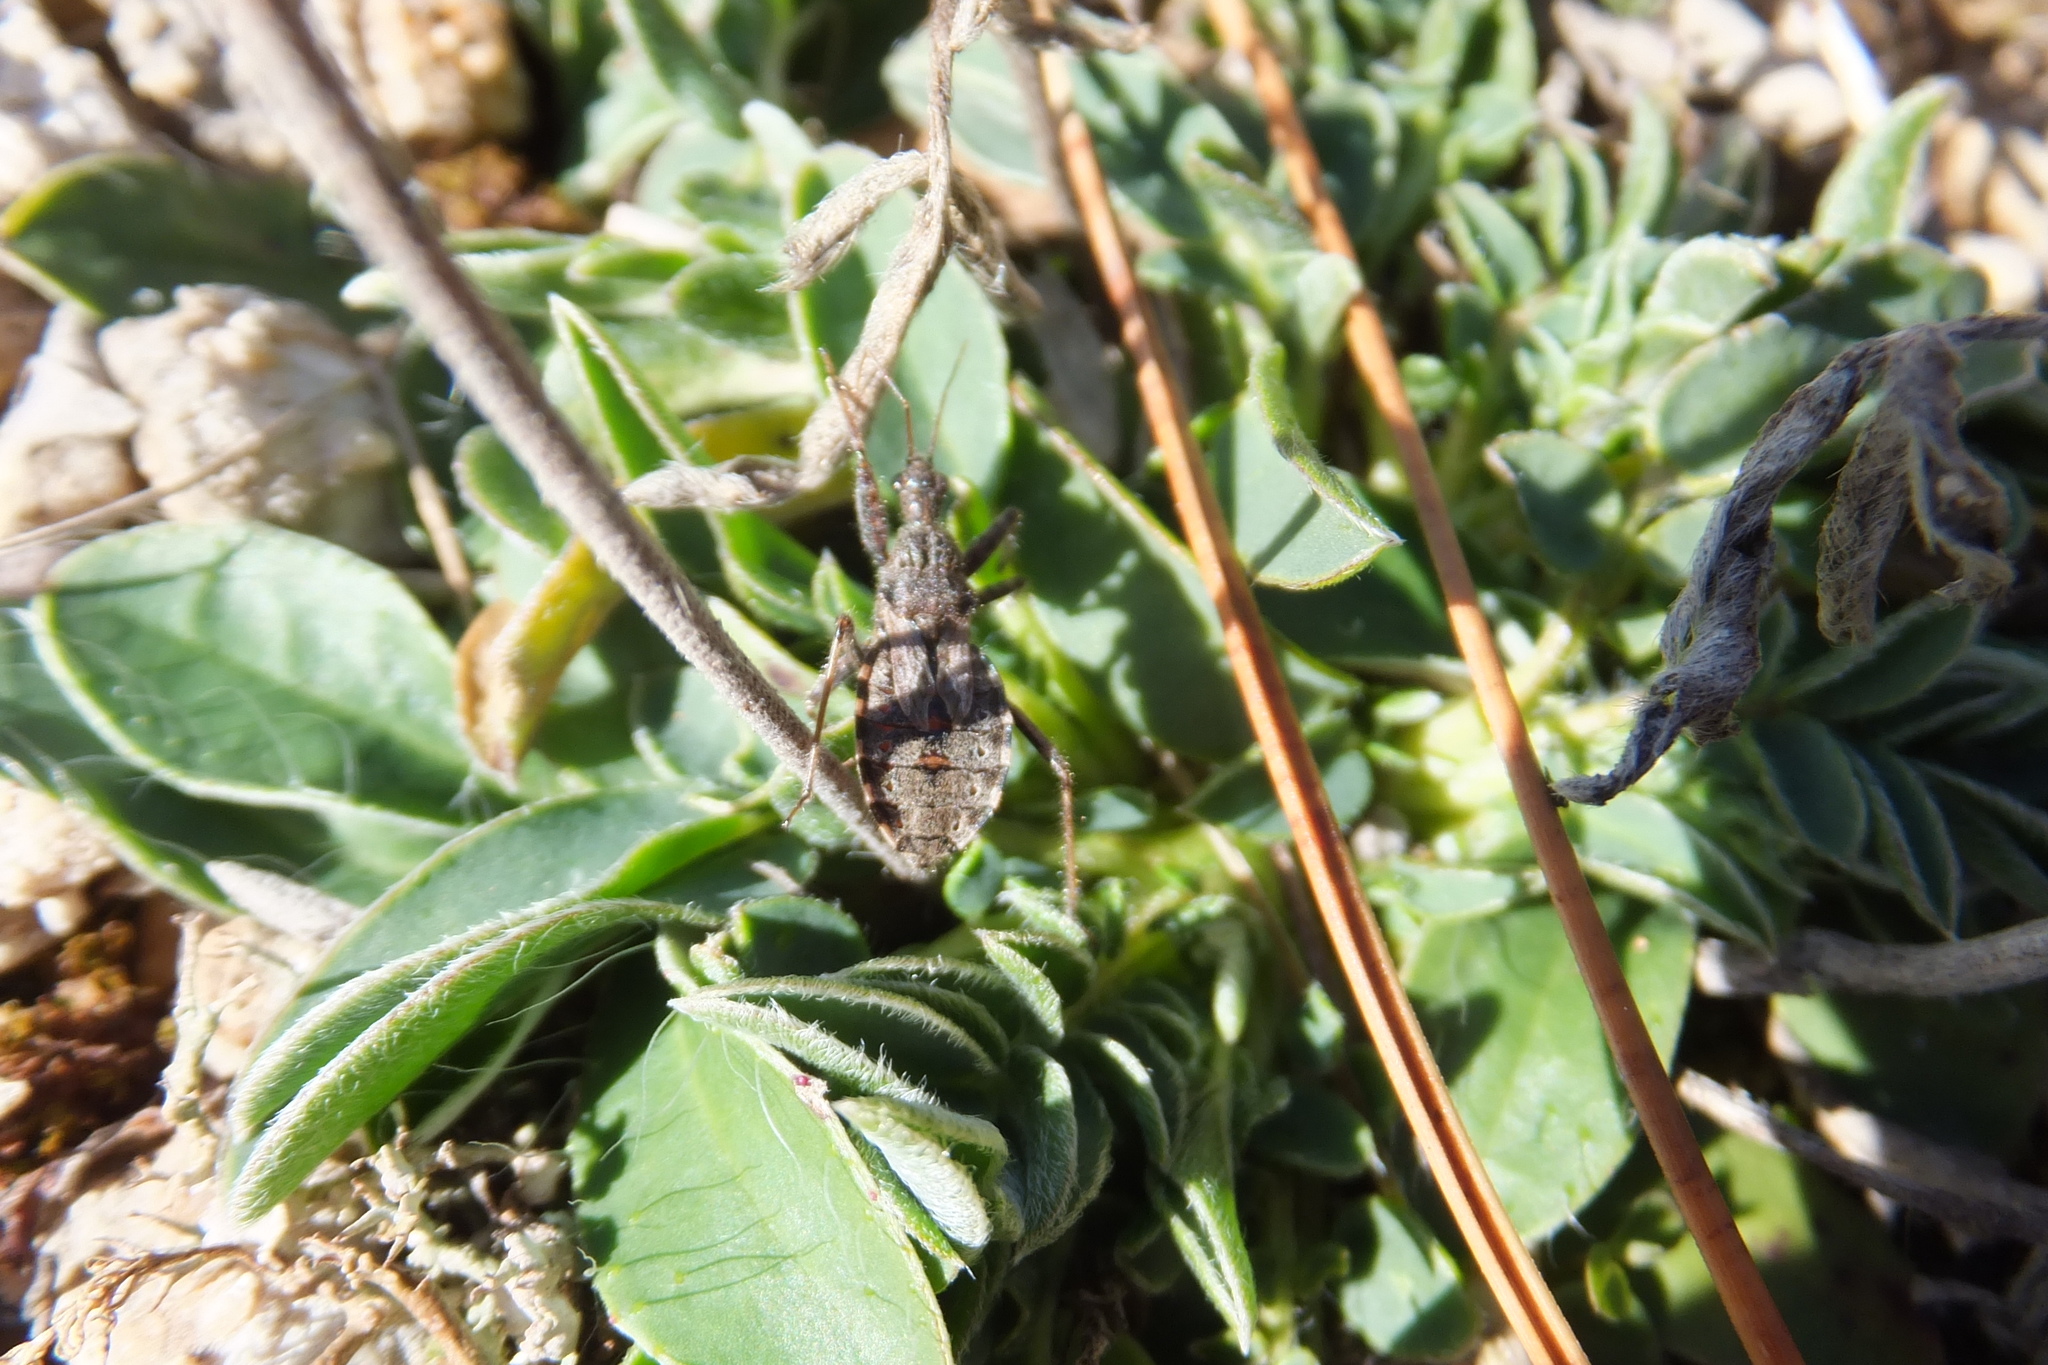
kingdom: Animalia
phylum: Arthropoda
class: Insecta
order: Hemiptera
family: Reduviidae
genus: Coranus
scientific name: Coranus subapterus
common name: Heath assassin bug
